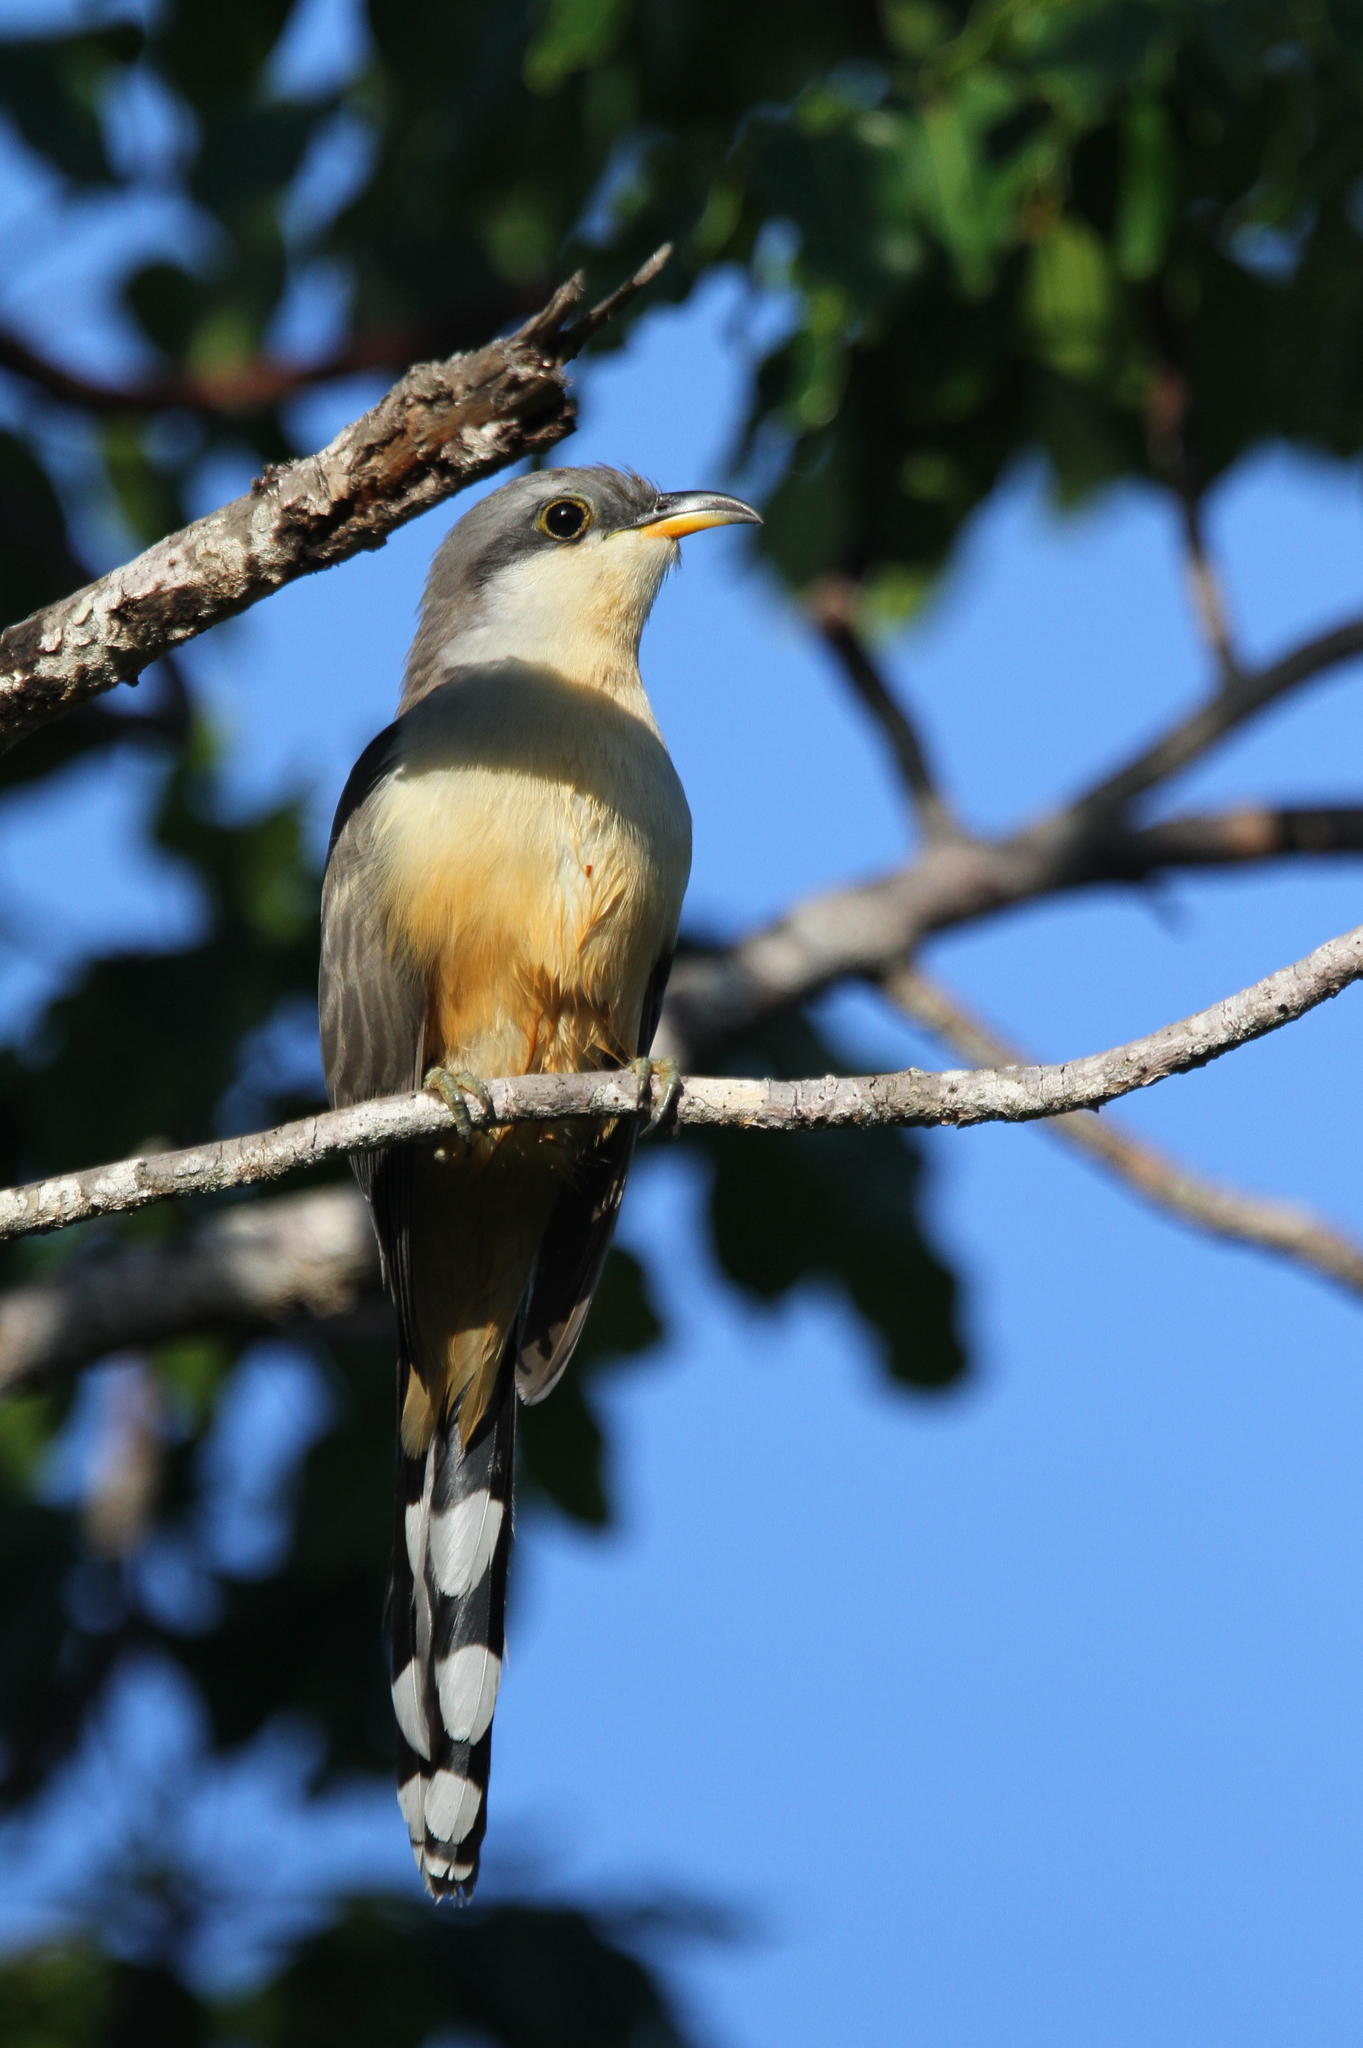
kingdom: Animalia
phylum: Chordata
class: Aves
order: Cuculiformes
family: Cuculidae
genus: Coccyzus
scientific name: Coccyzus minor
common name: Mangrove cuckoo
